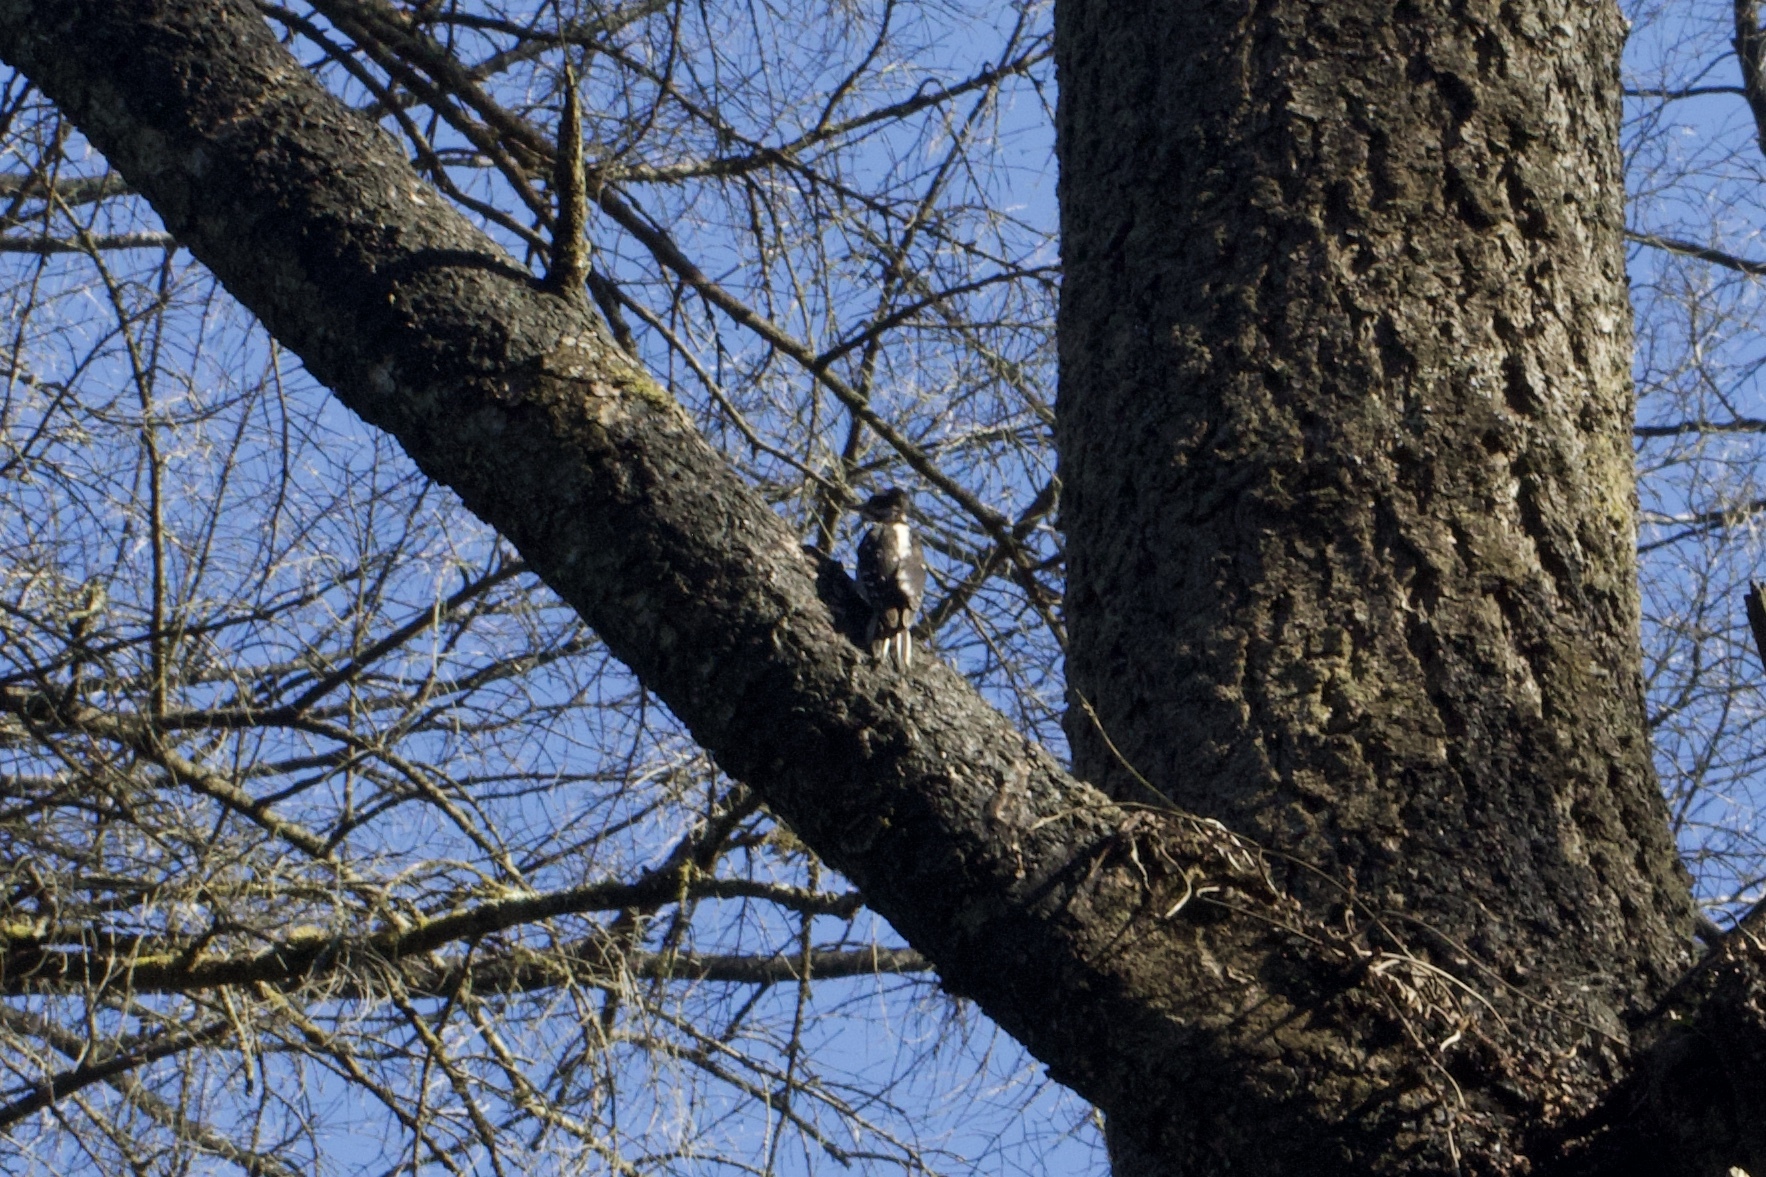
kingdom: Animalia
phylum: Chordata
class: Aves
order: Piciformes
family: Picidae
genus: Leuconotopicus
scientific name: Leuconotopicus villosus
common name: Hairy woodpecker
